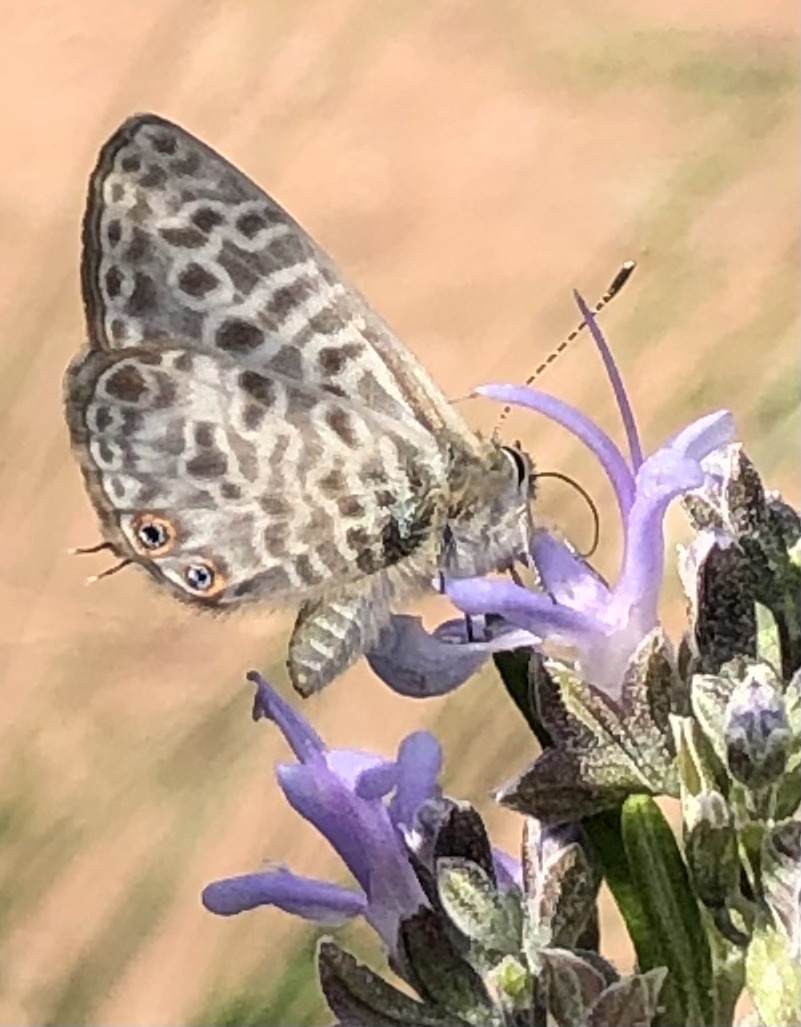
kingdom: Animalia
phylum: Arthropoda
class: Insecta
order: Lepidoptera
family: Lycaenidae
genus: Leptotes
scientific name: Leptotes pirithous
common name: Lang's short-tailed blue
